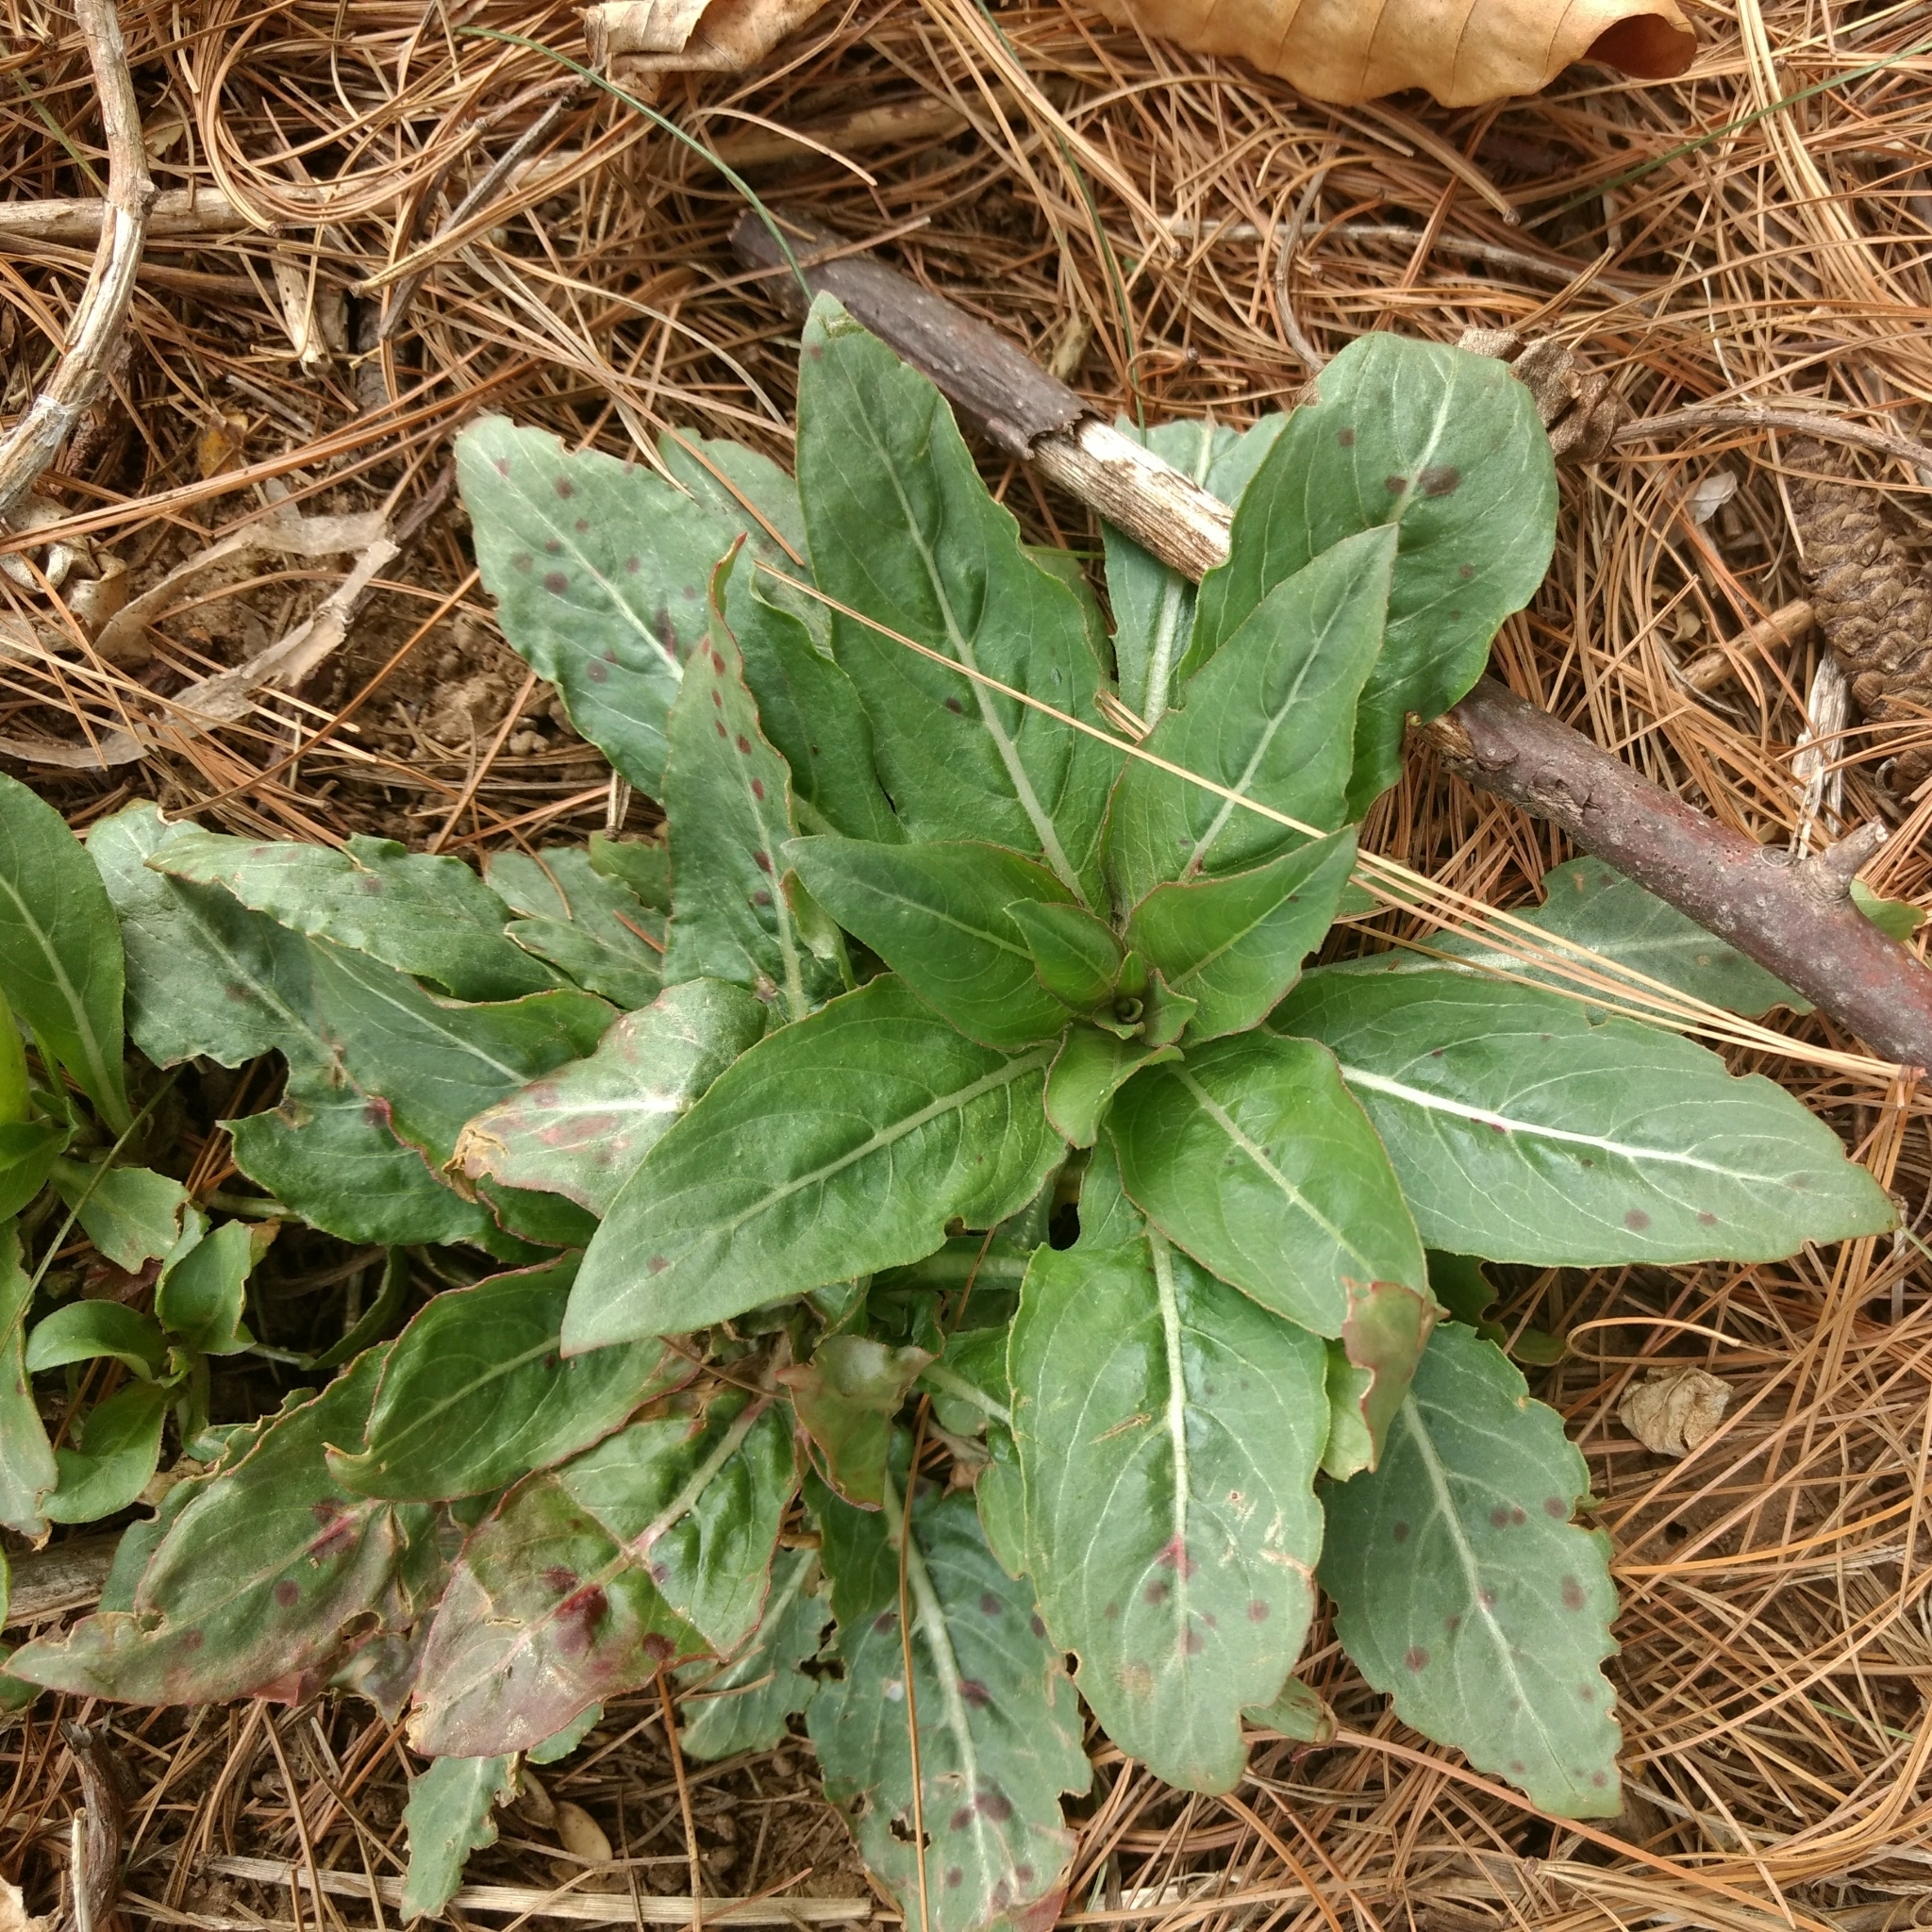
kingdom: Plantae
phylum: Tracheophyta
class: Magnoliopsida
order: Myrtales
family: Onagraceae
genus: Oenothera
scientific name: Oenothera
